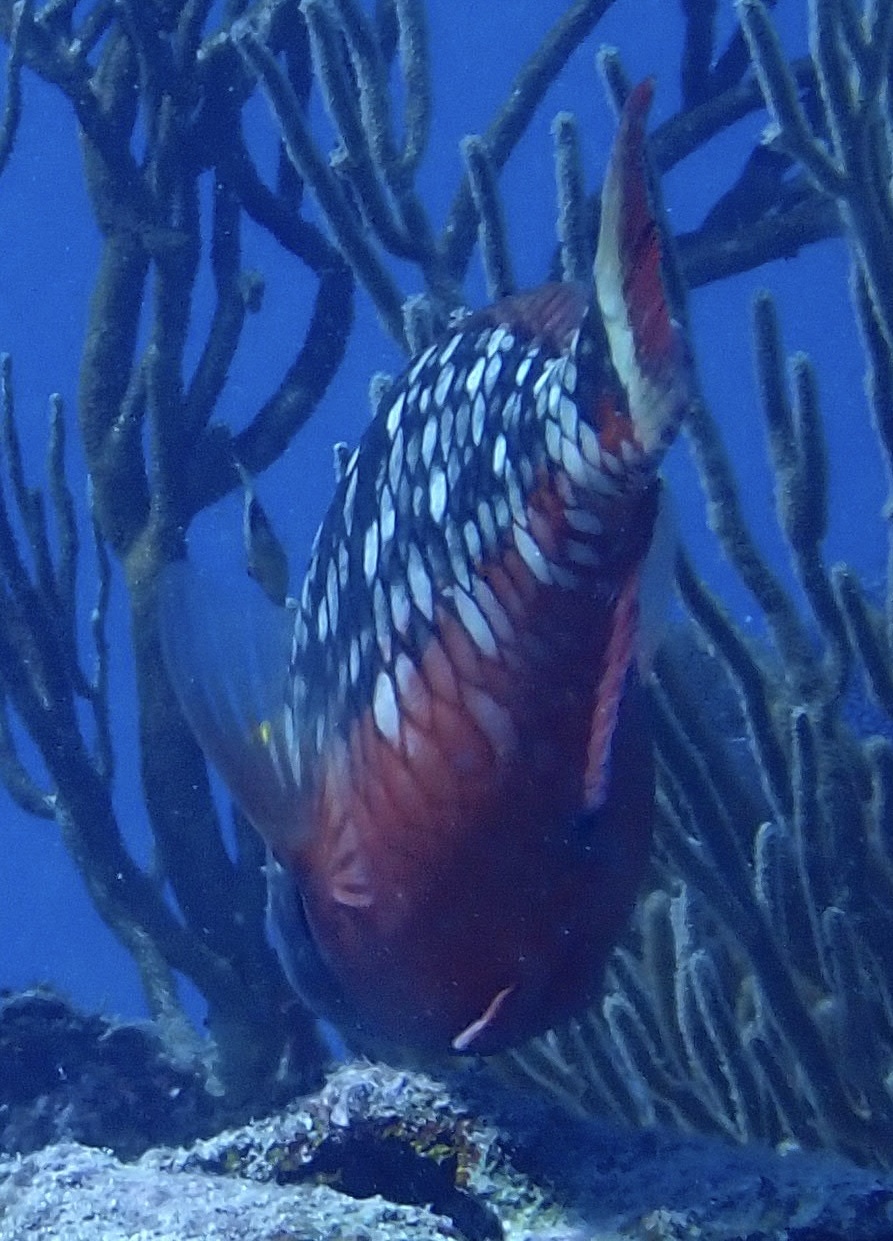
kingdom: Animalia
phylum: Chordata
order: Perciformes
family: Scaridae
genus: Sparisoma
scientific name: Sparisoma viride
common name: Stoplight parrotfish
